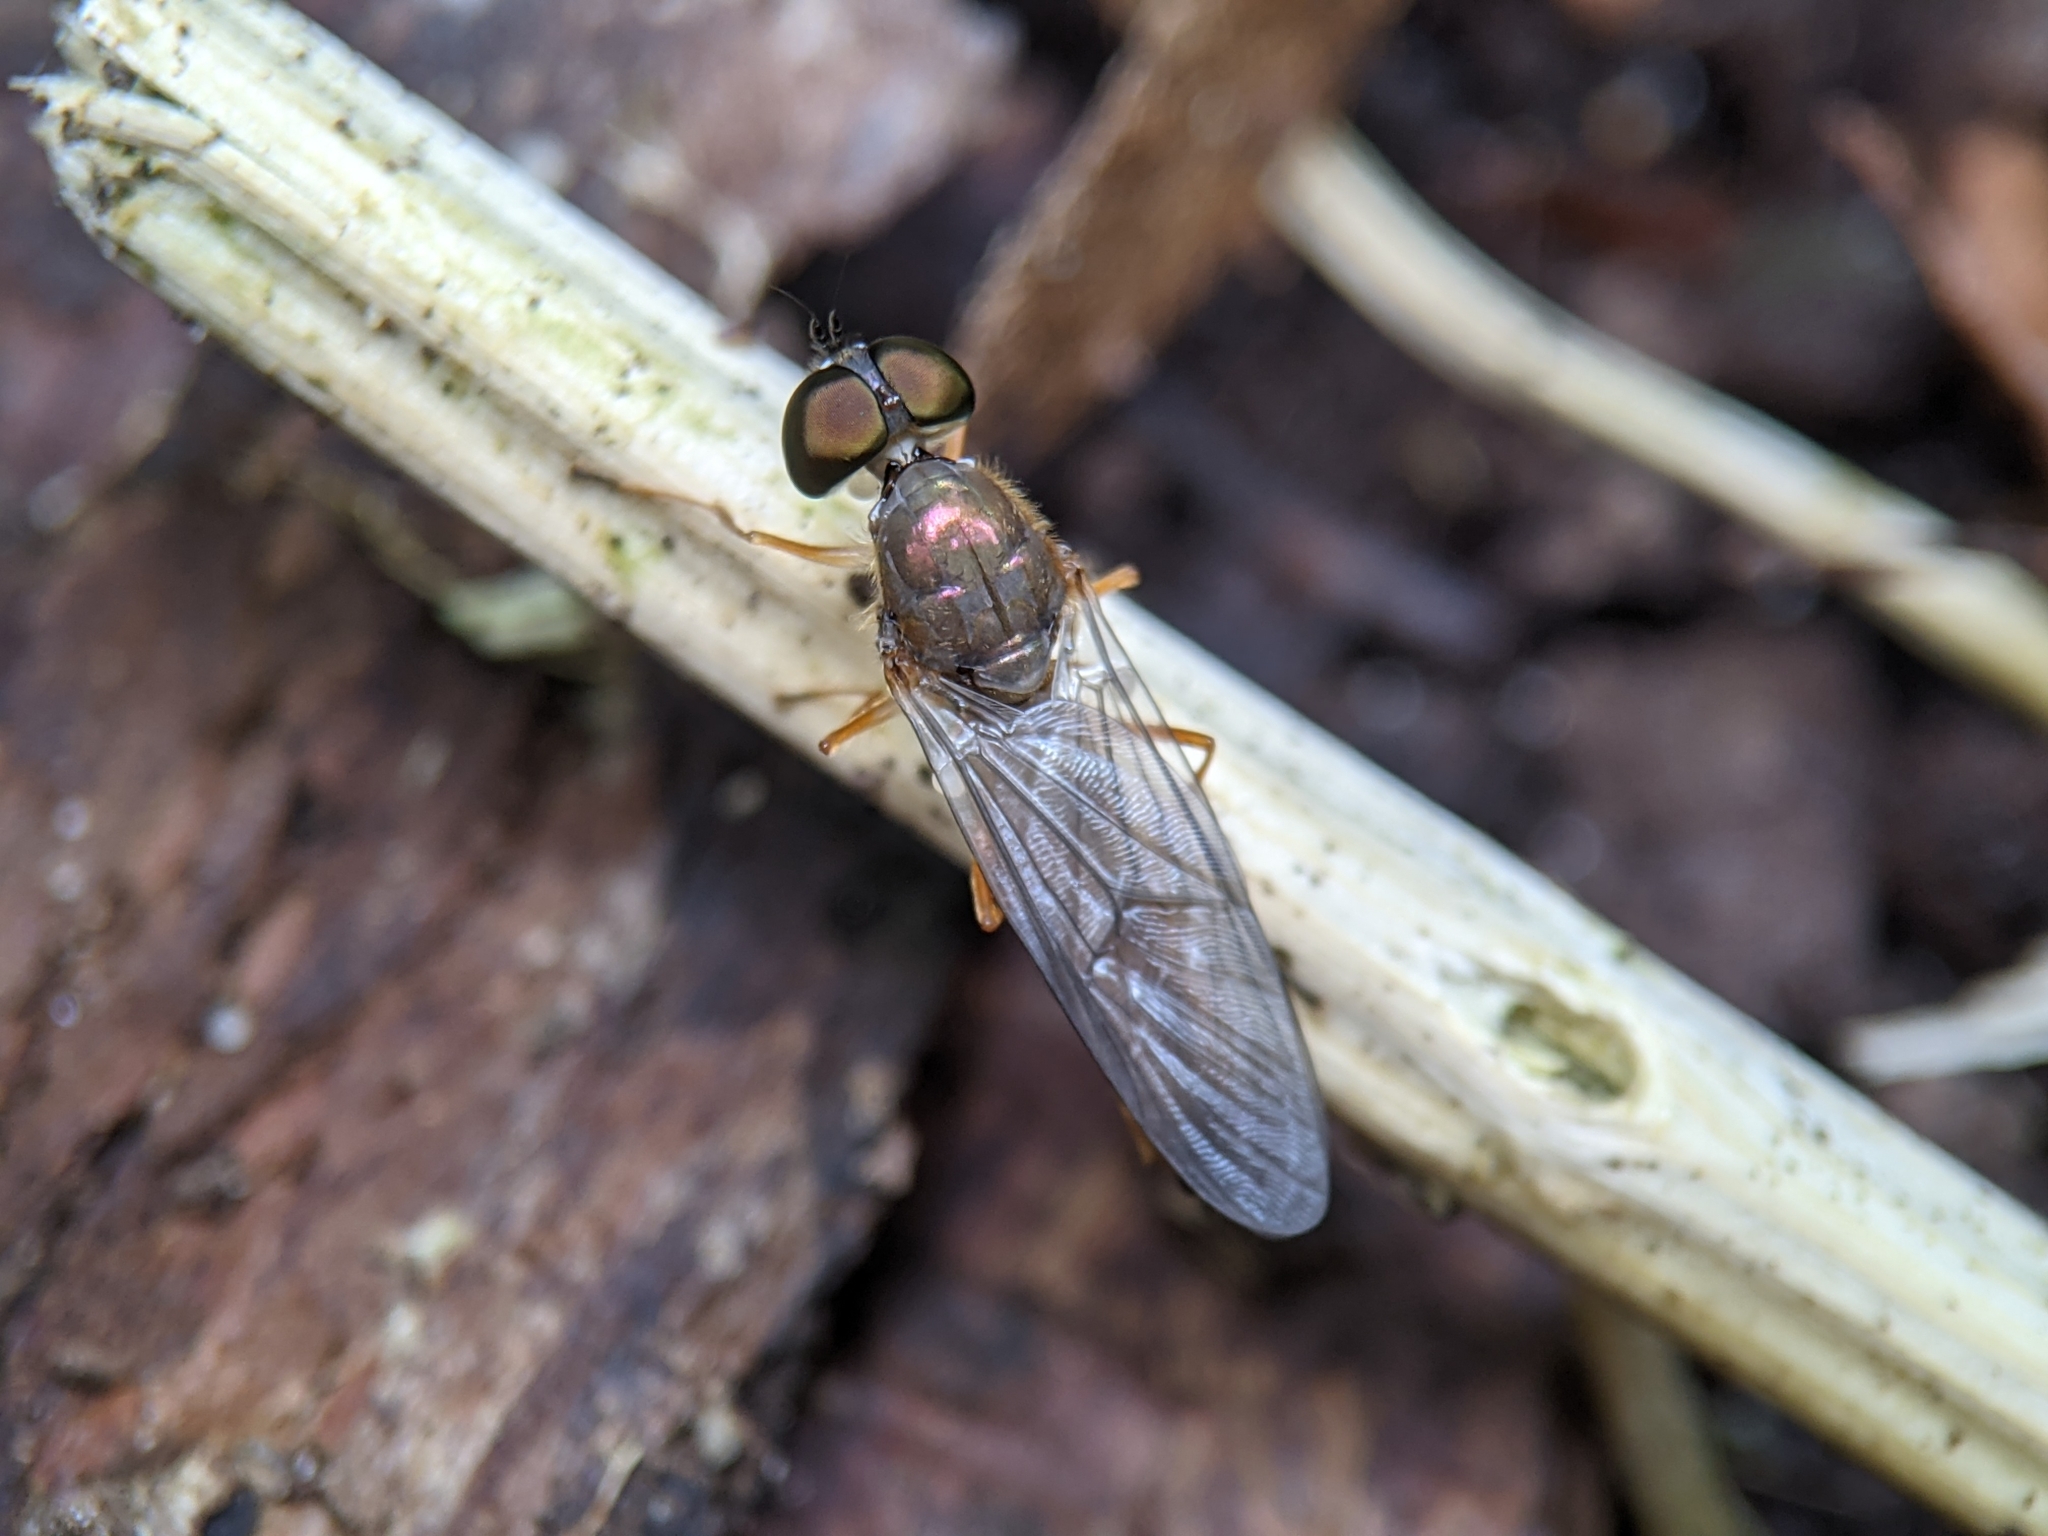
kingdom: Animalia
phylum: Arthropoda
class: Insecta
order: Diptera
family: Stratiomyidae
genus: Sargus
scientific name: Sargus bipunctatus
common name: Twin-spot centurion
